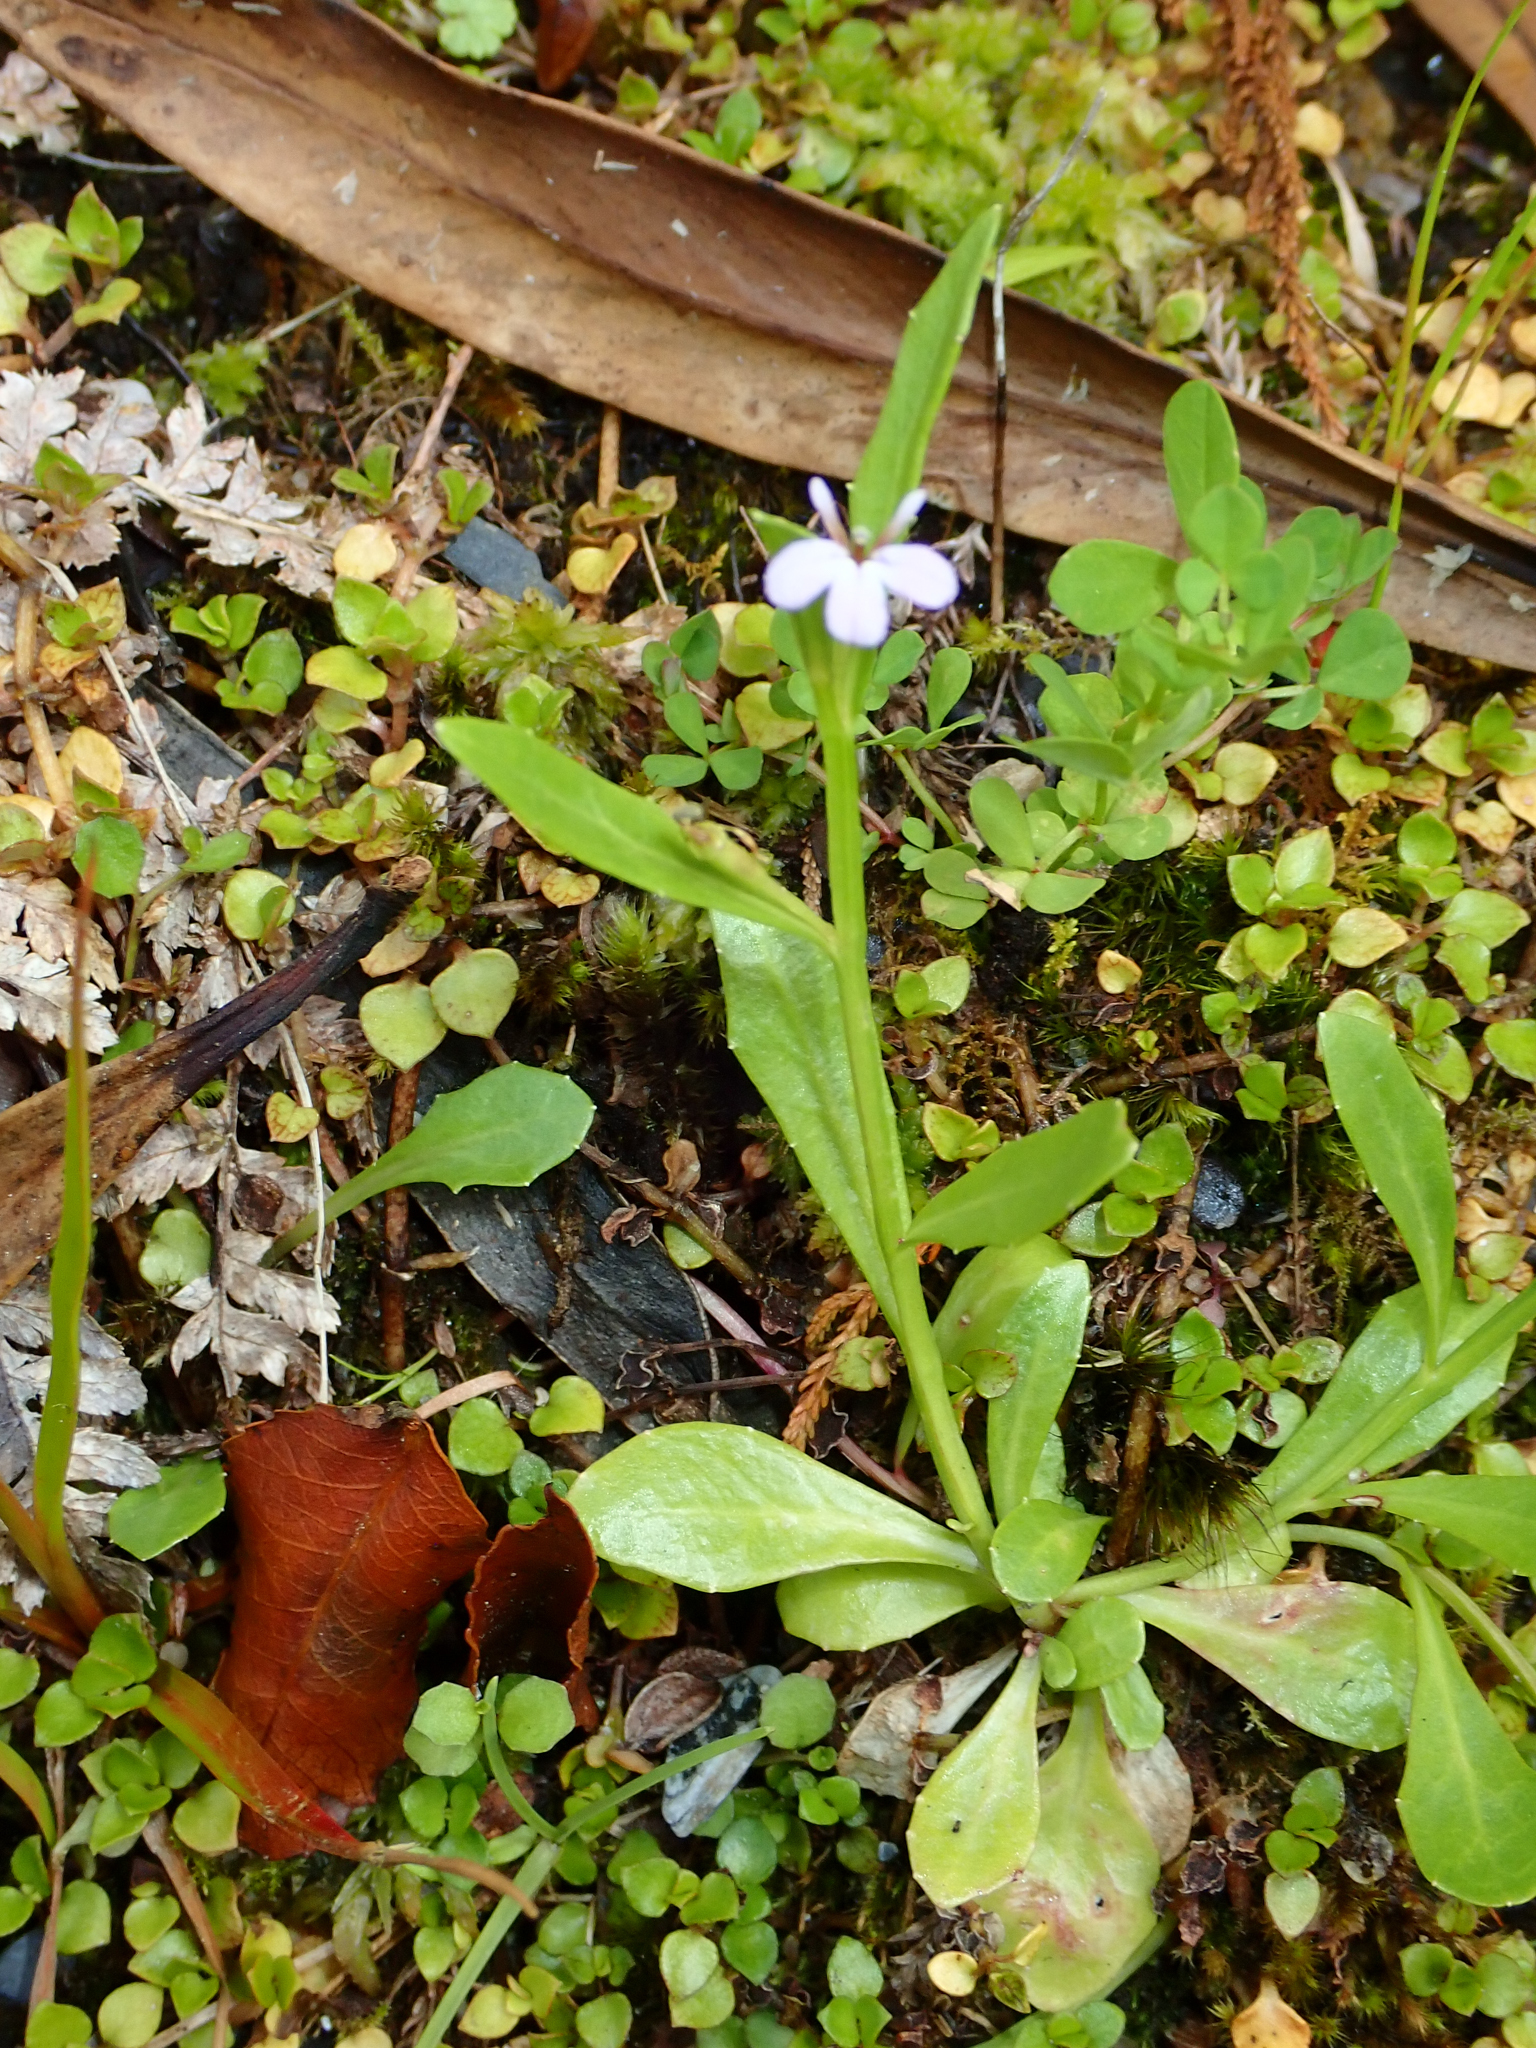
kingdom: Plantae
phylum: Tracheophyta
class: Magnoliopsida
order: Asterales
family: Campanulaceae
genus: Lobelia
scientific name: Lobelia anceps
